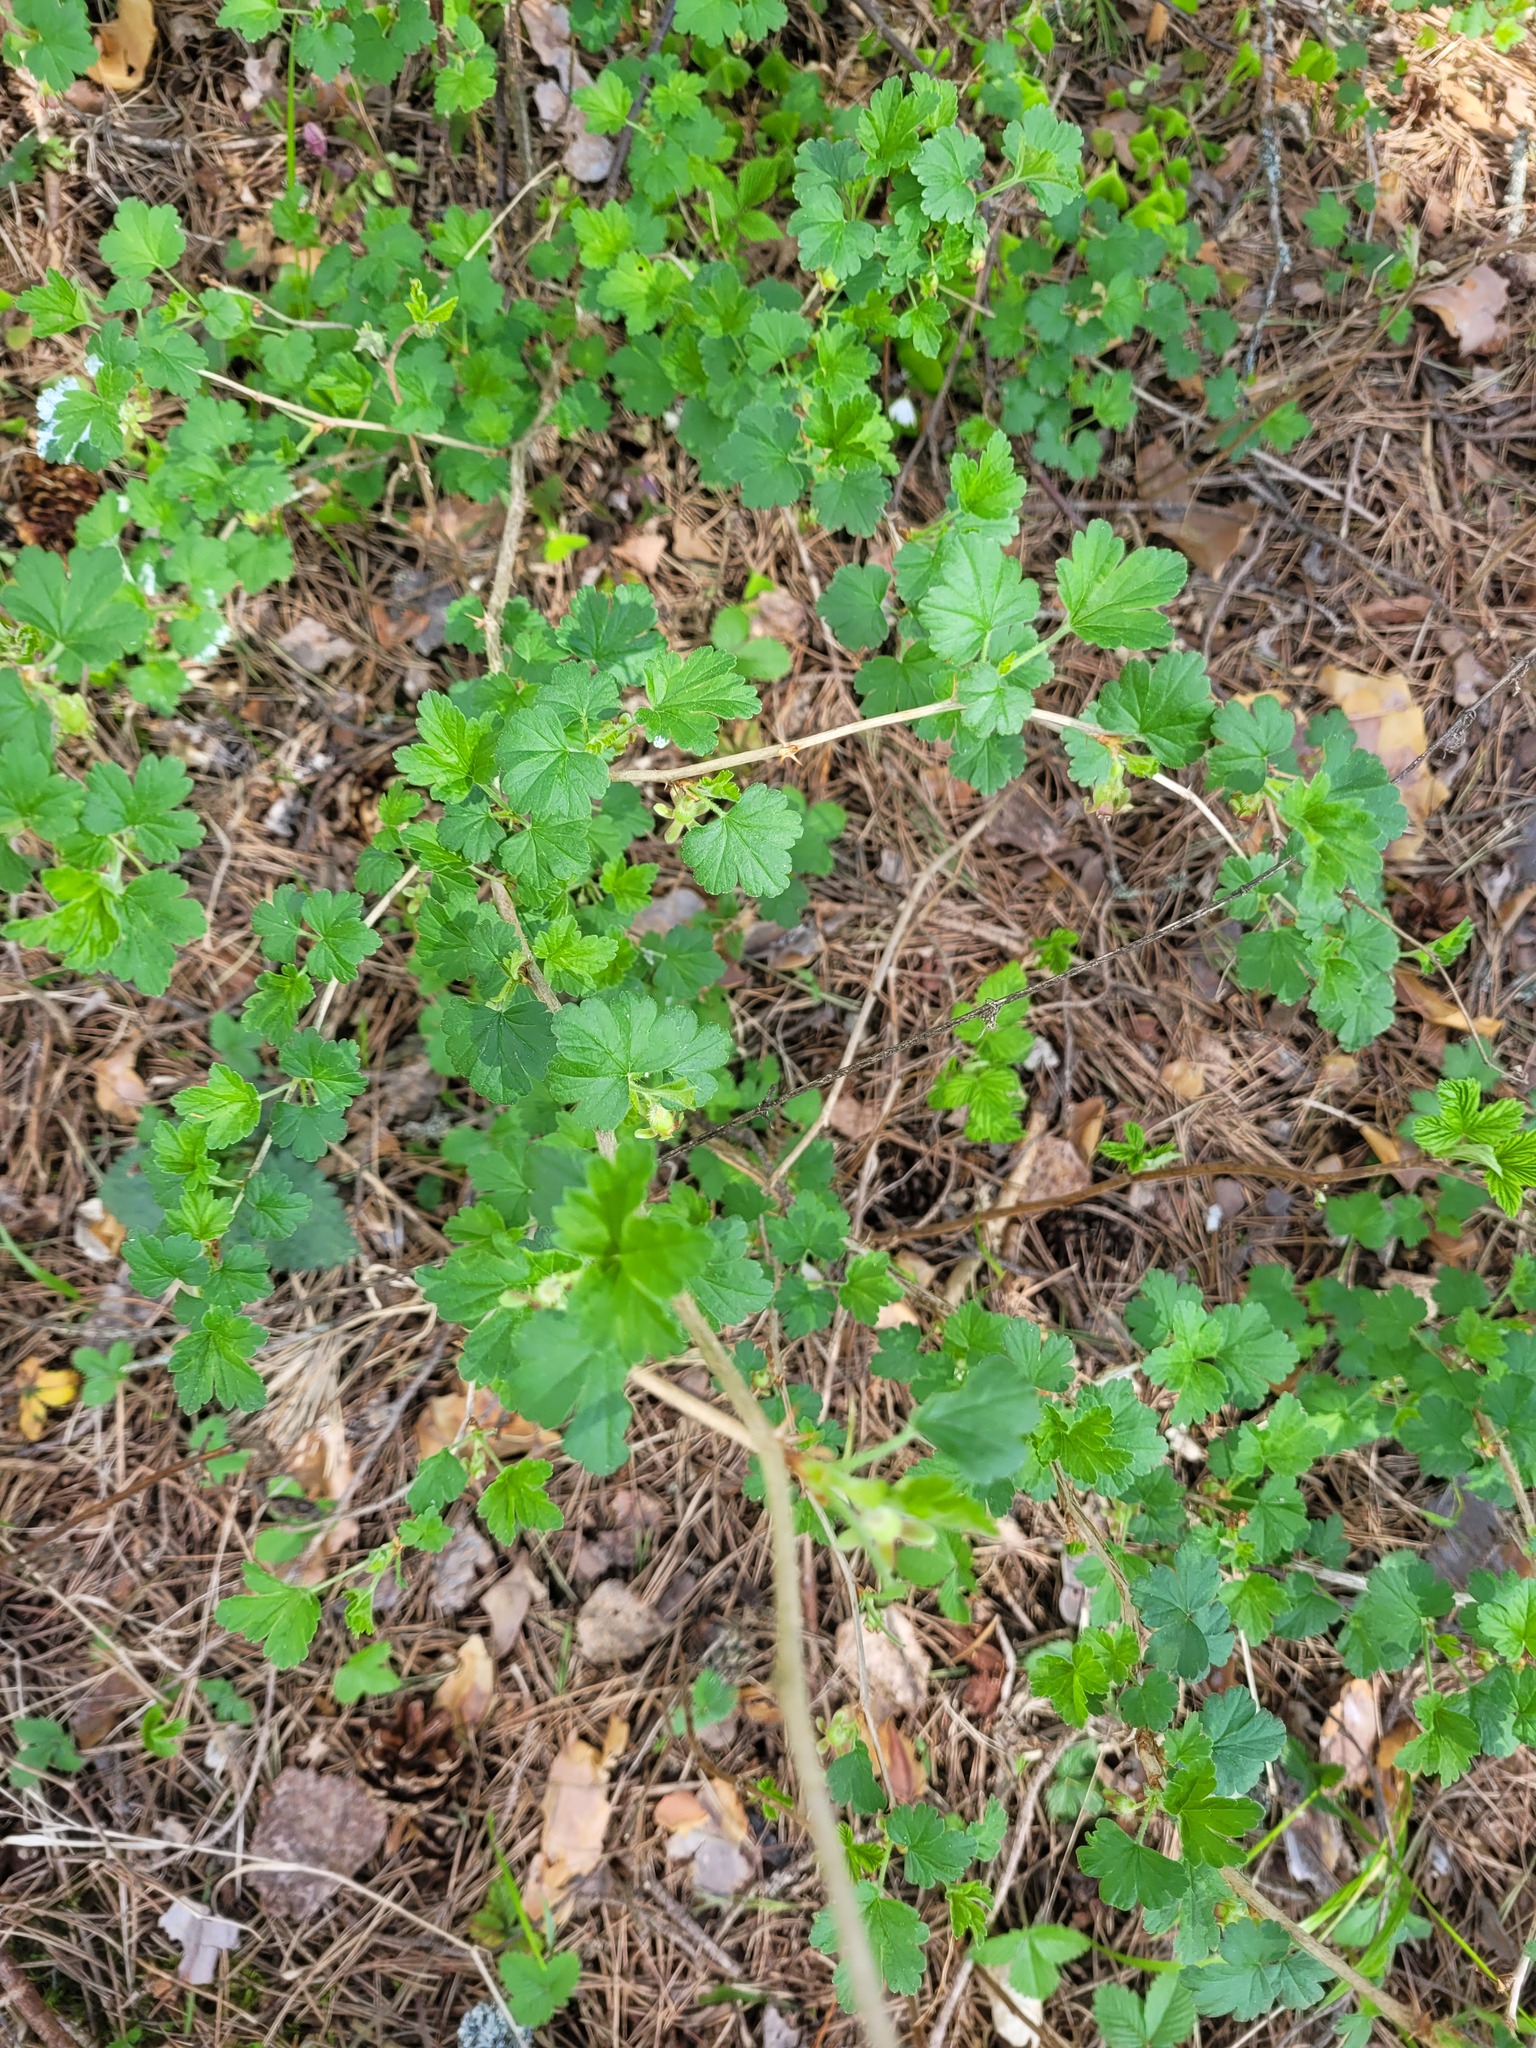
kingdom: Plantae
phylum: Tracheophyta
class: Magnoliopsida
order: Saxifragales
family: Grossulariaceae
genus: Ribes
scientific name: Ribes uva-crispa
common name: Gooseberry
